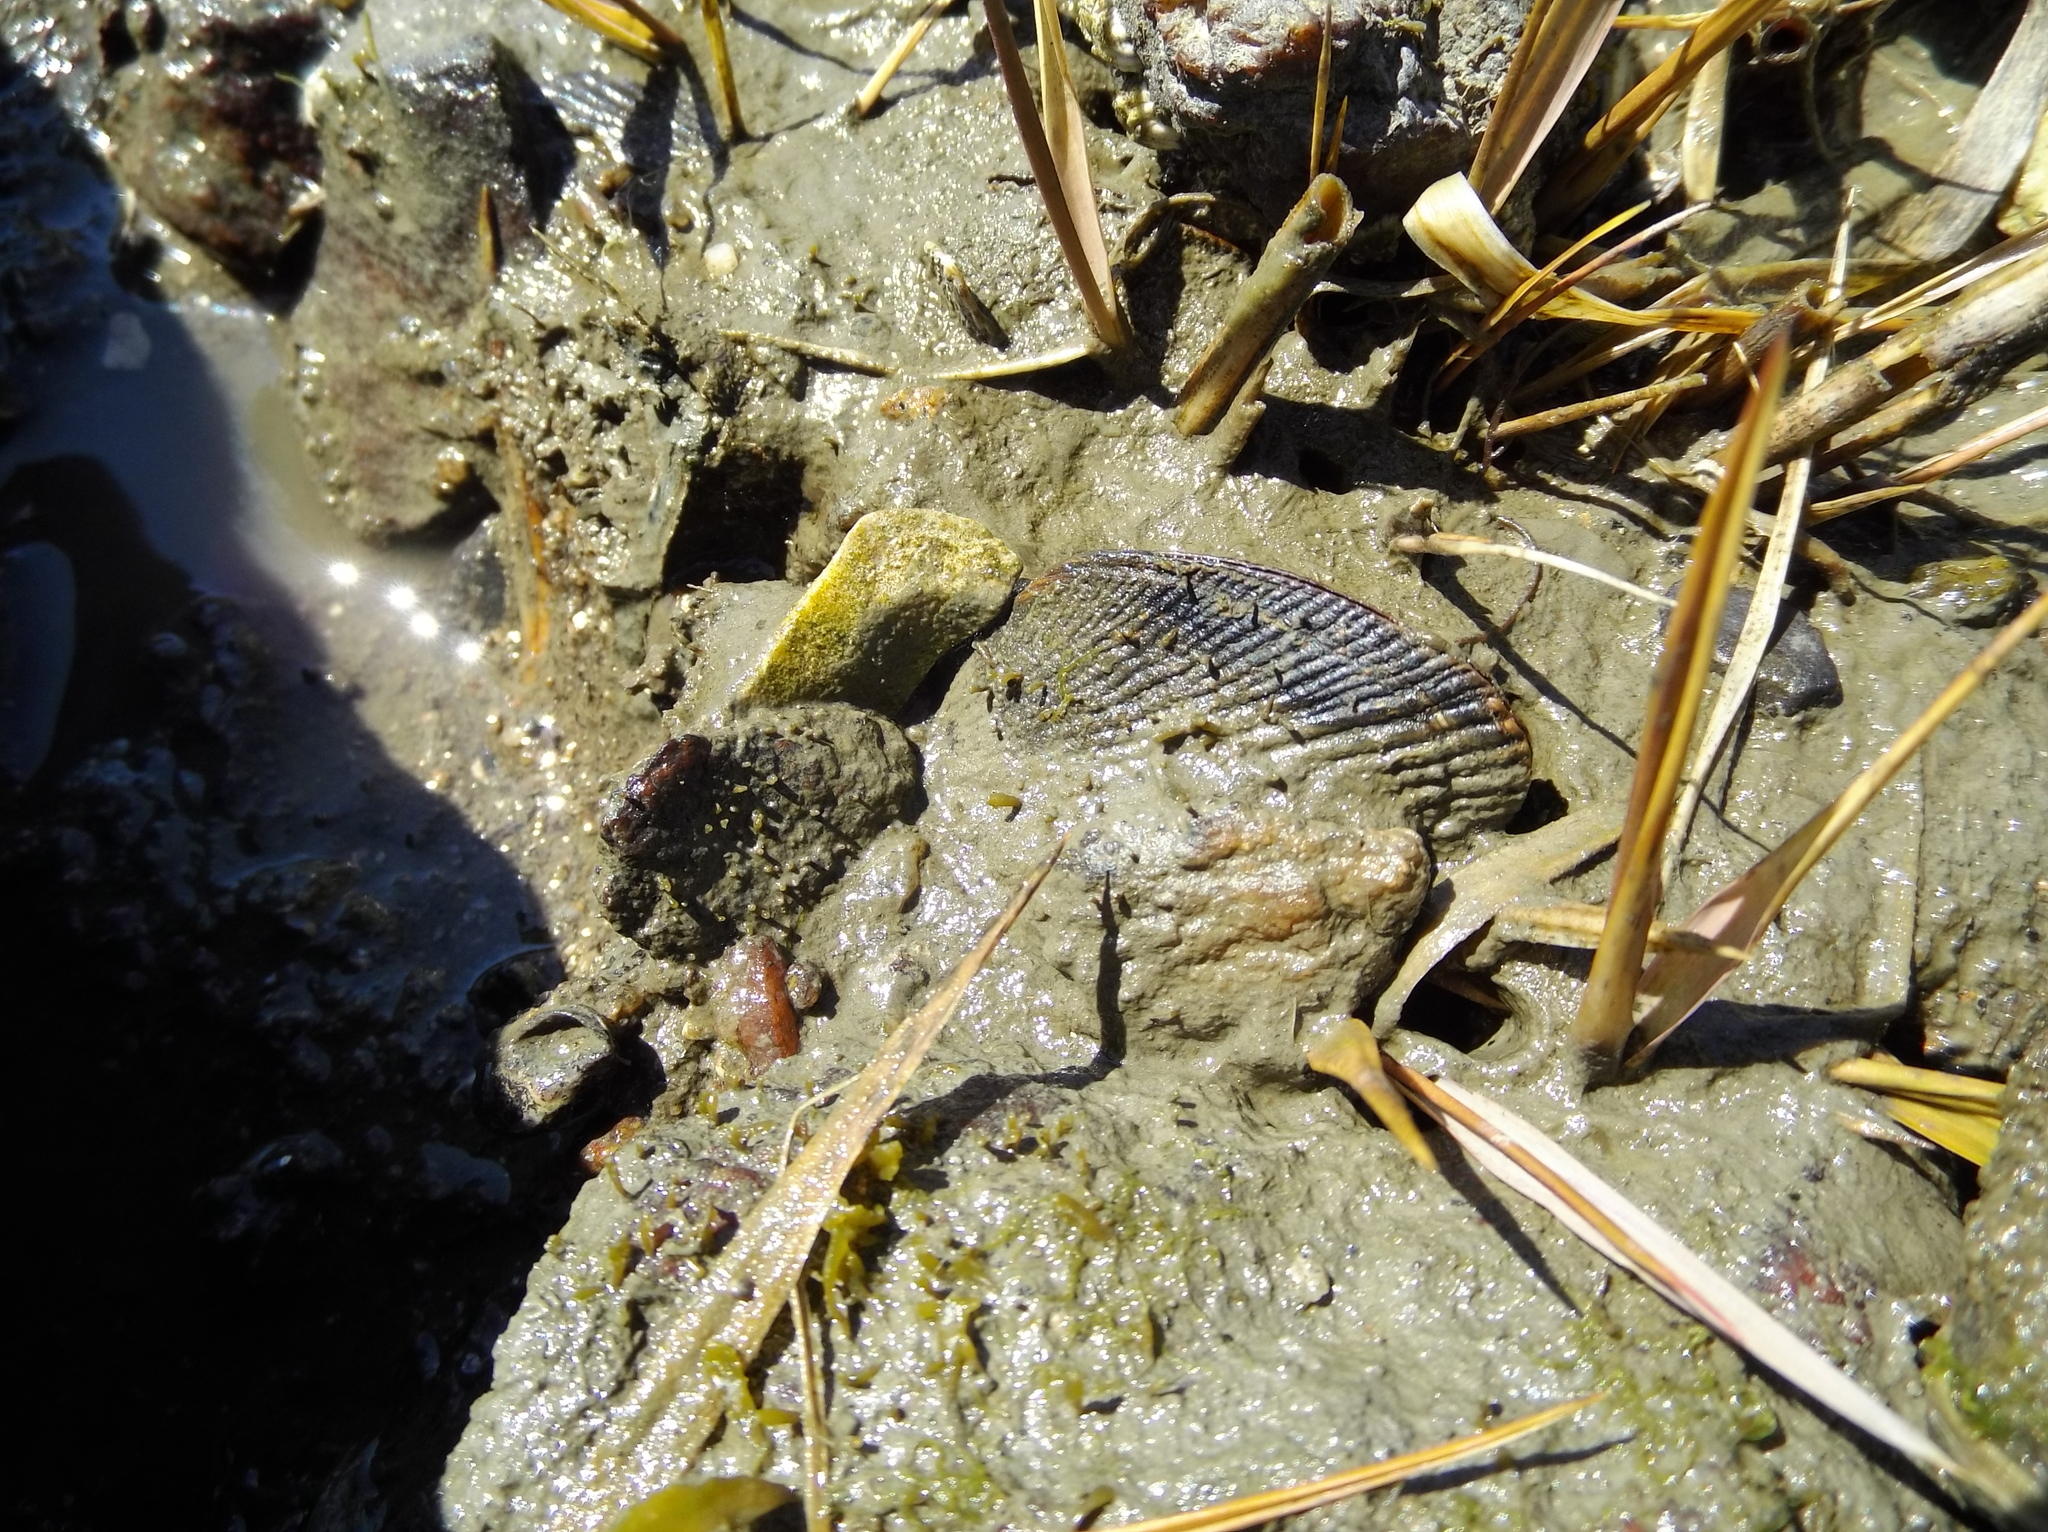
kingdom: Animalia
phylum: Mollusca
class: Bivalvia
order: Mytilida
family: Mytilidae
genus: Geukensia
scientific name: Geukensia demissa
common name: Ribbed mussel
